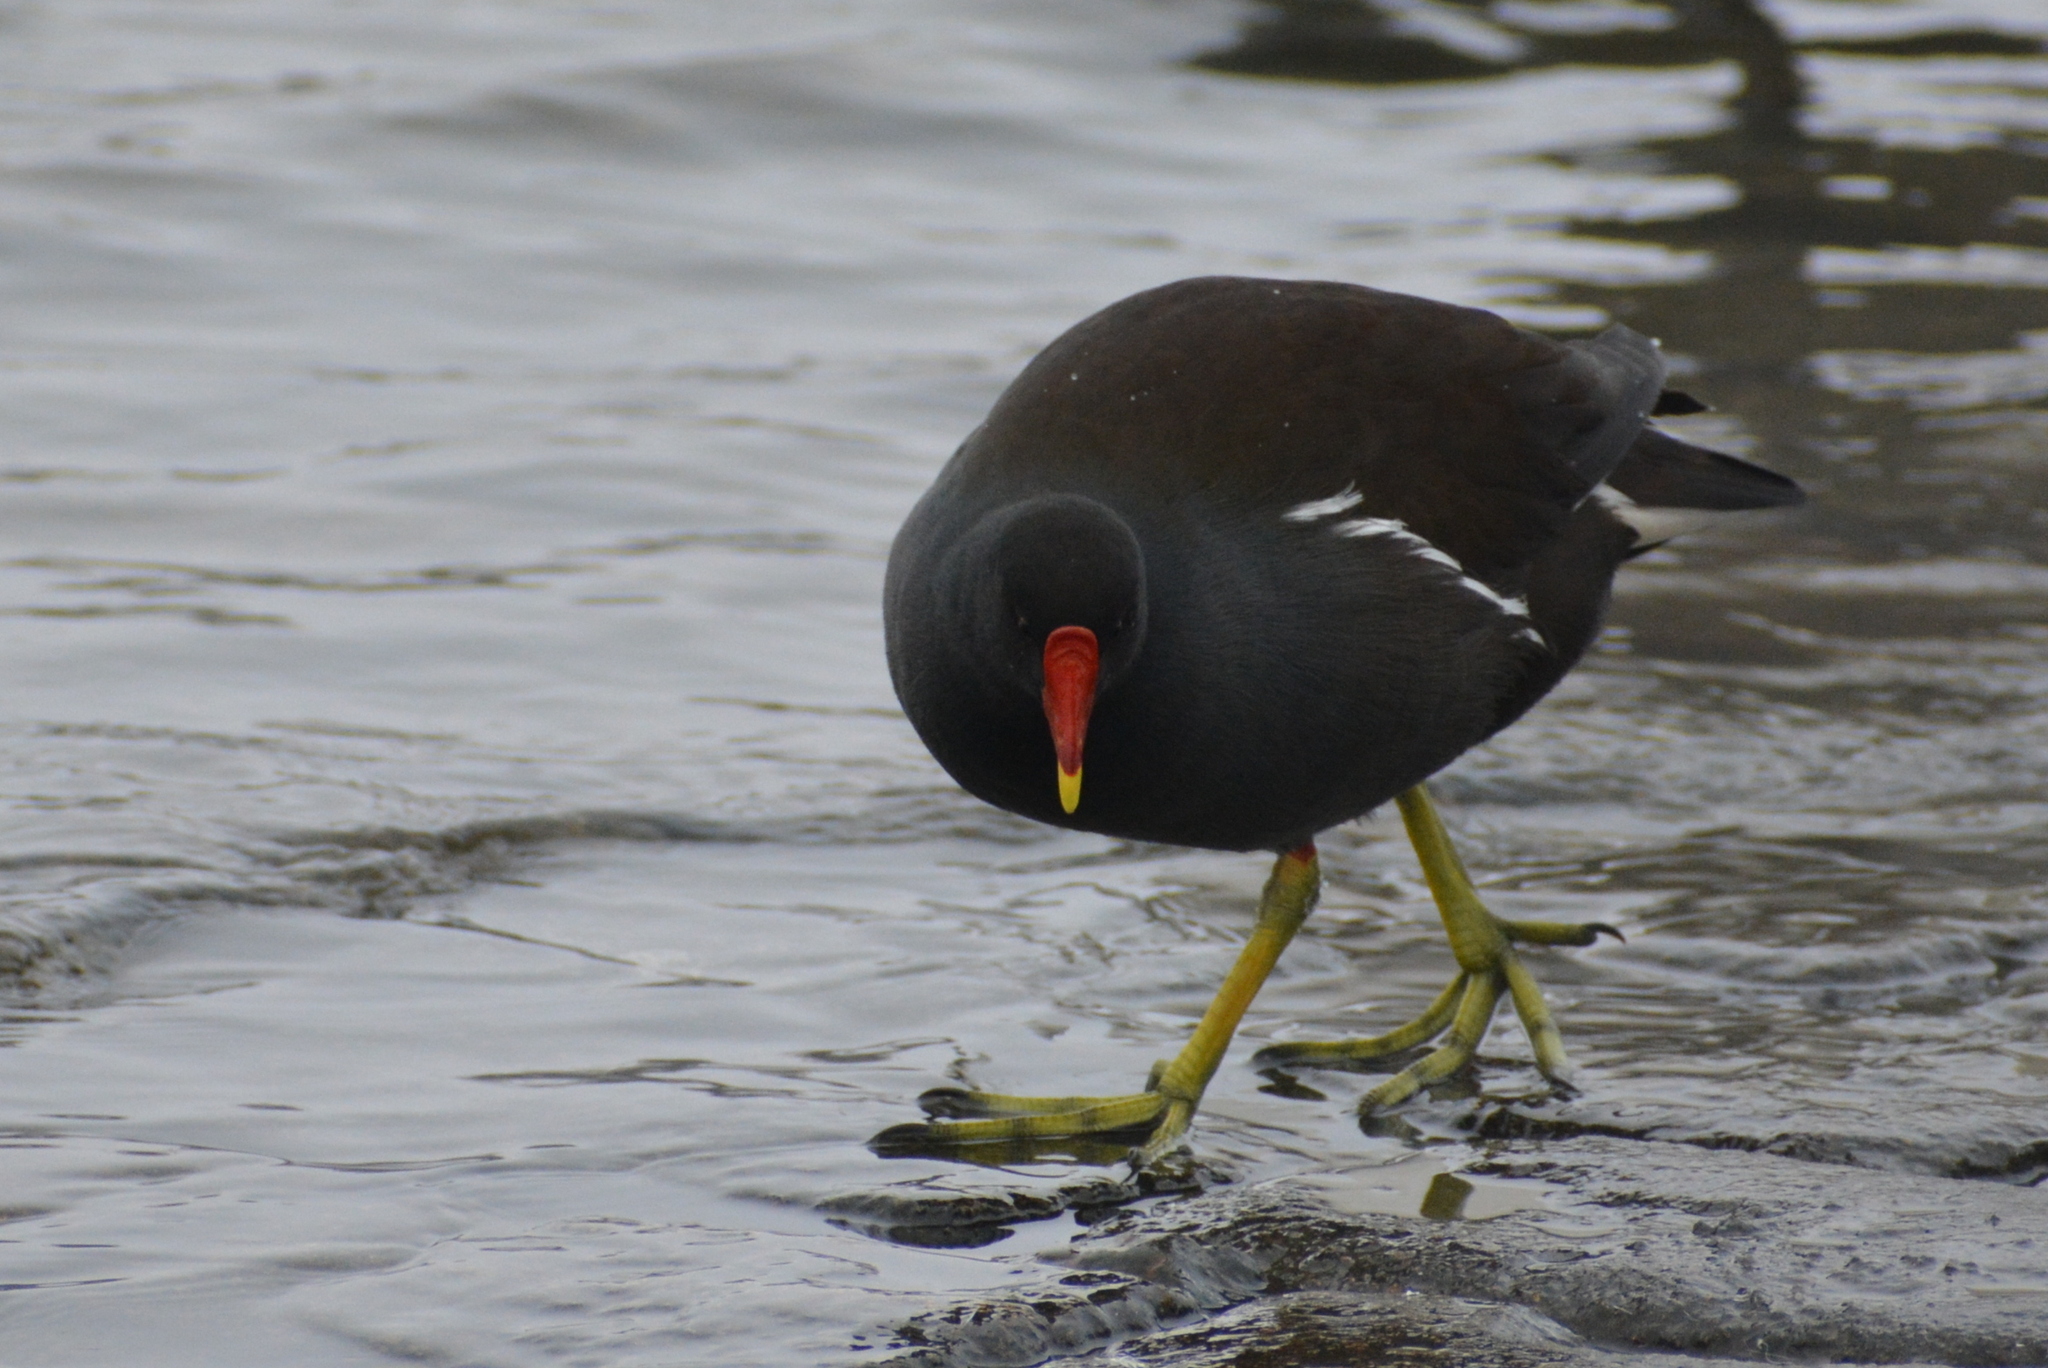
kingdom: Animalia
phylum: Chordata
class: Aves
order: Gruiformes
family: Rallidae
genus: Gallinula
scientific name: Gallinula chloropus
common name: Common moorhen
